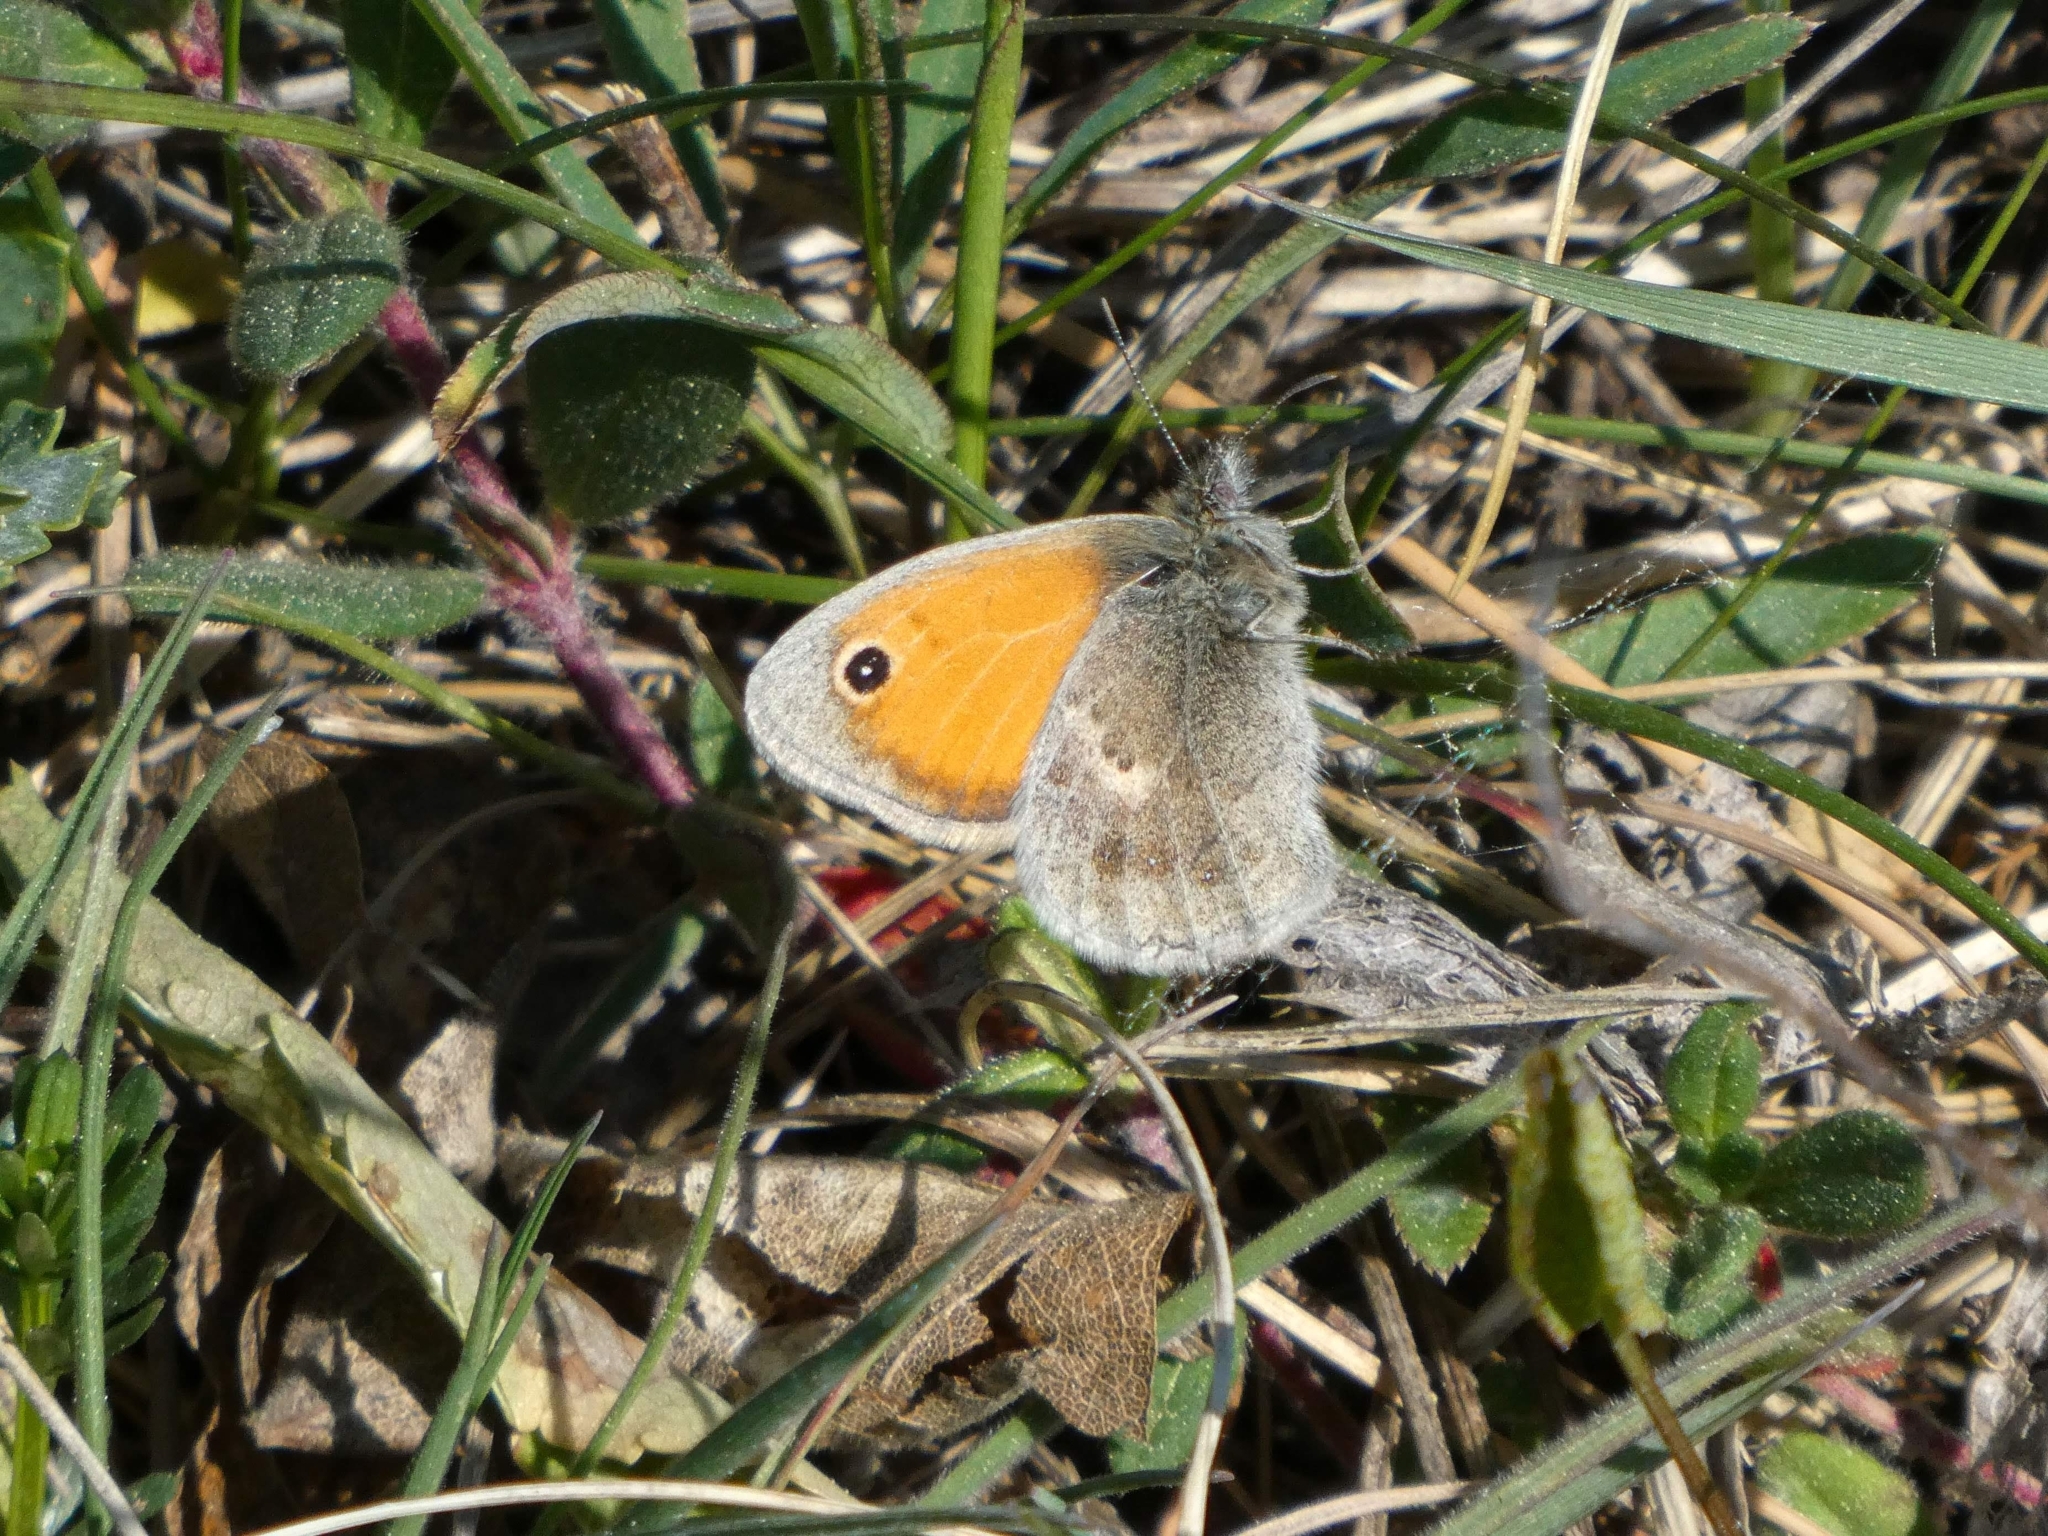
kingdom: Animalia
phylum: Arthropoda
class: Insecta
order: Lepidoptera
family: Nymphalidae
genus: Coenonympha
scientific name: Coenonympha pamphilus
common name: Small heath
